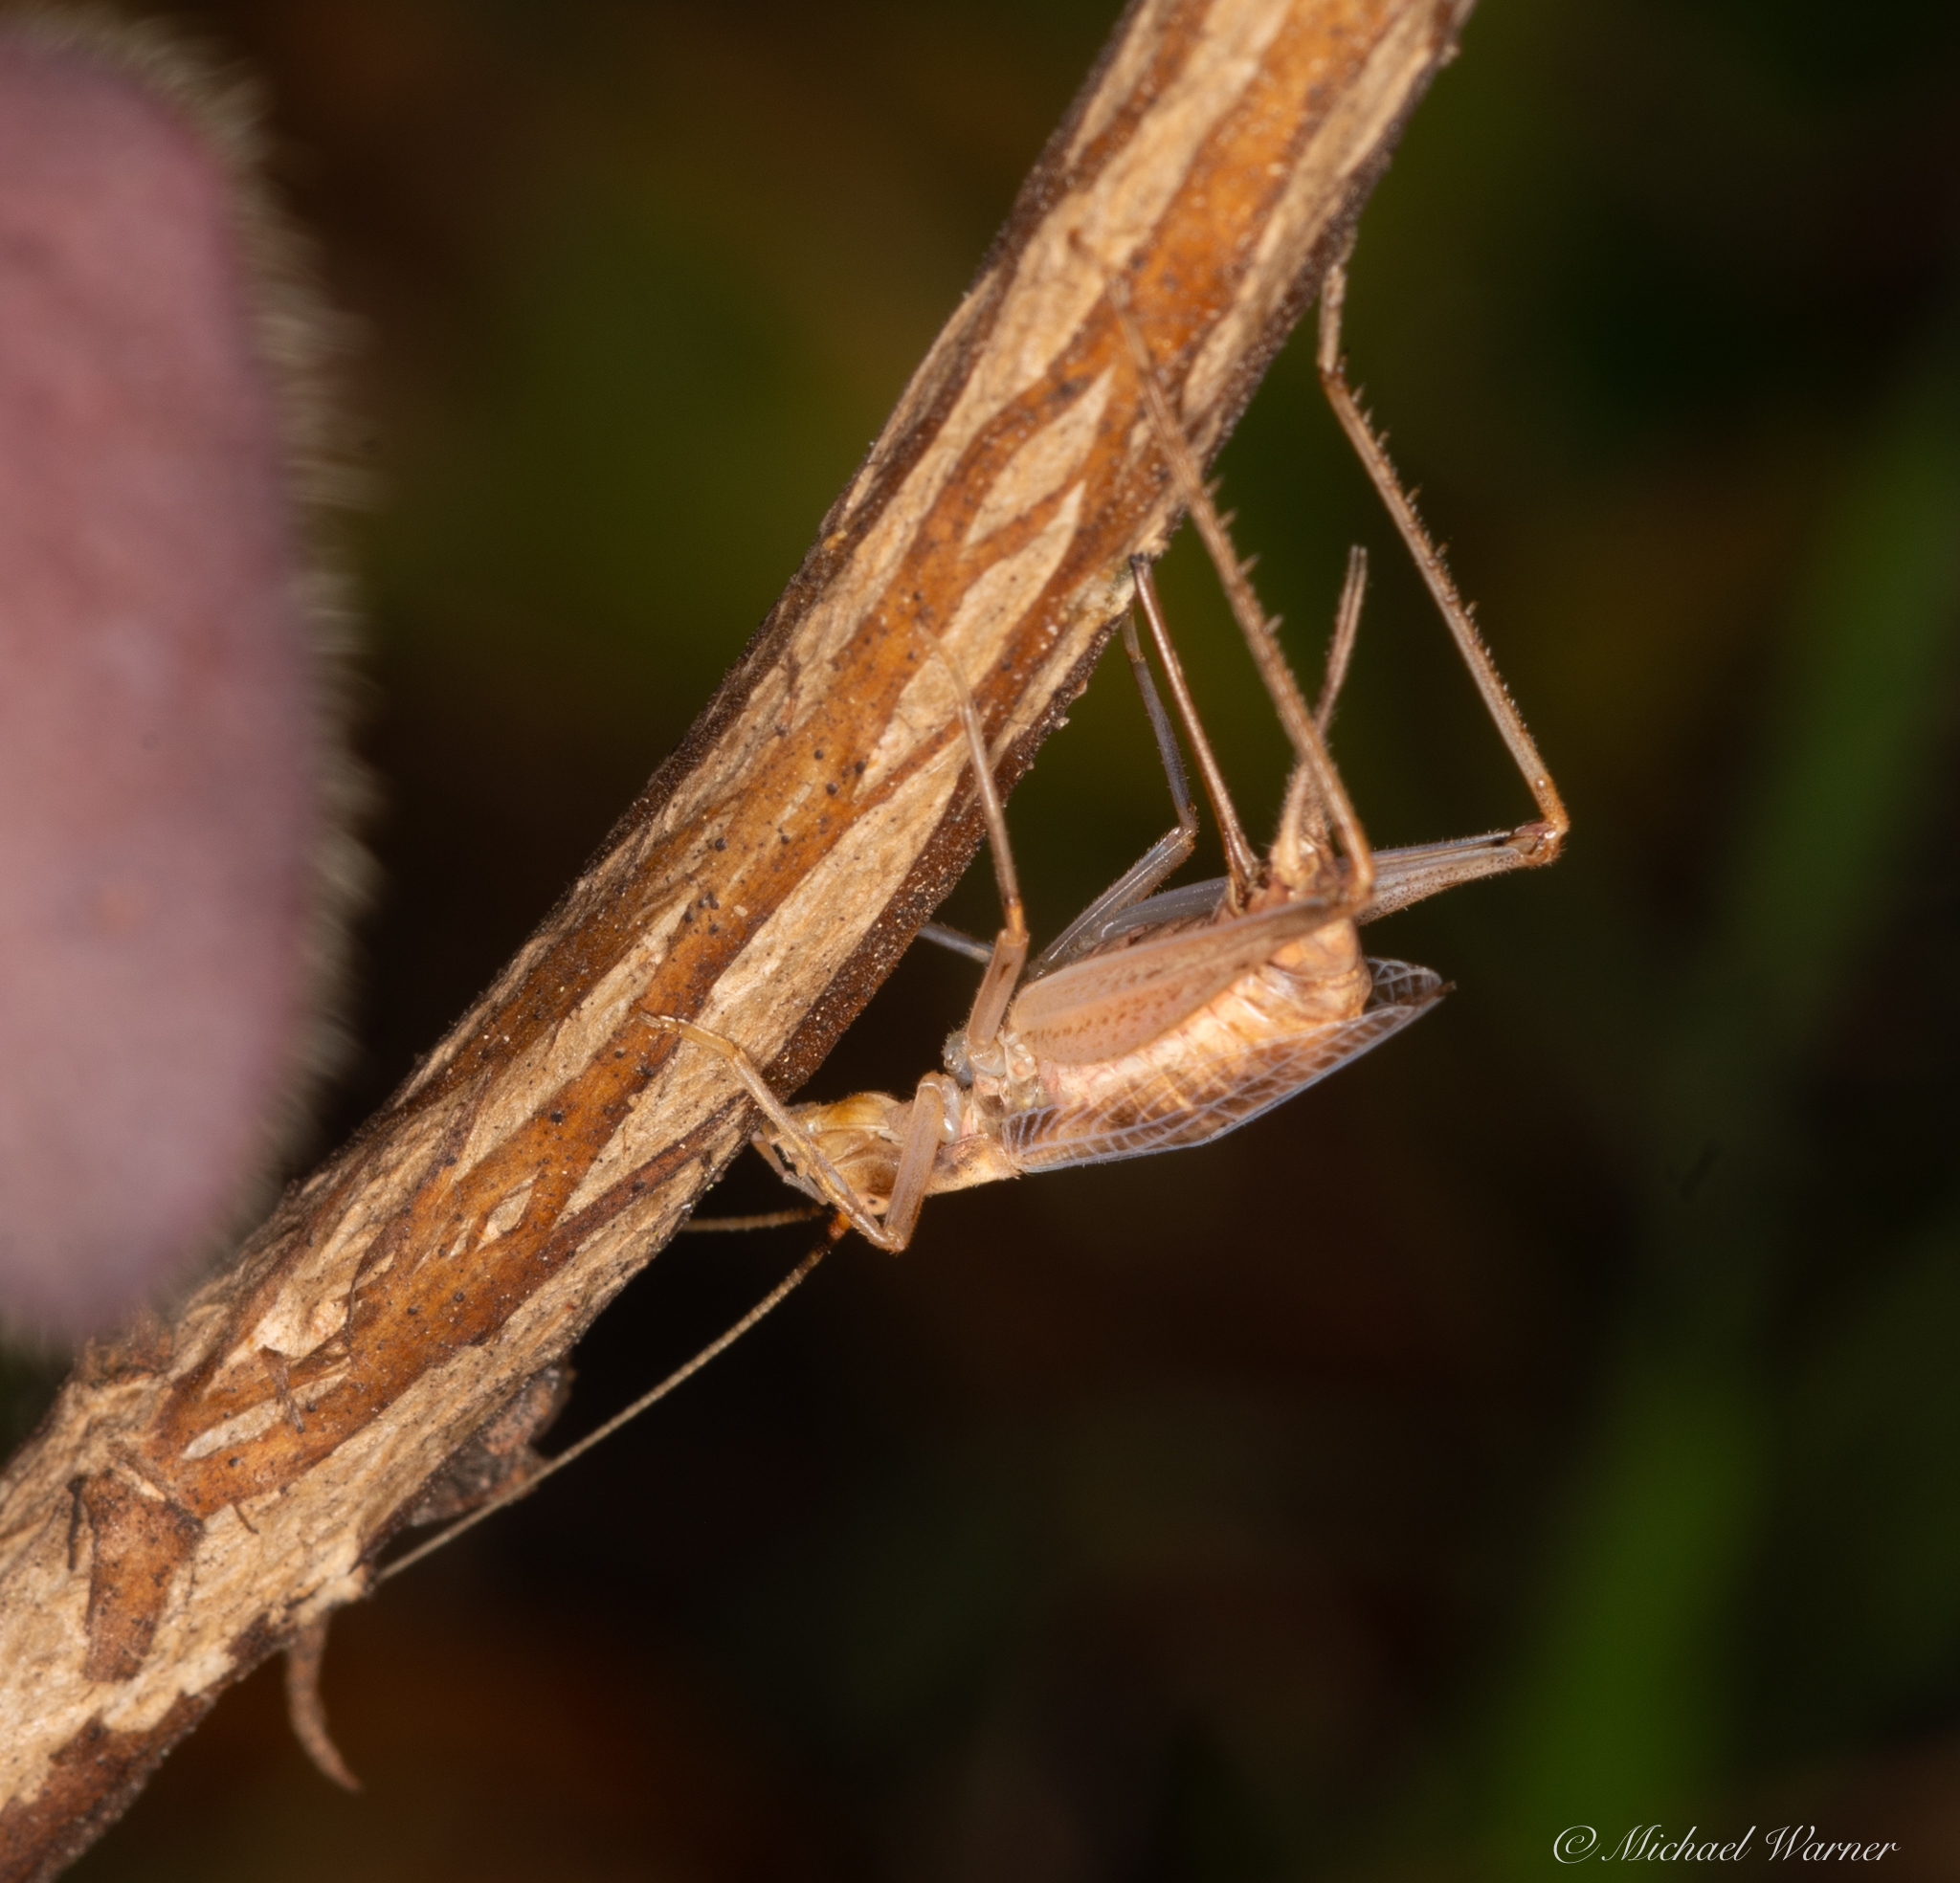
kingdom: Animalia
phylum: Arthropoda
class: Insecta
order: Orthoptera
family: Gryllidae
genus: Oecanthus
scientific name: Oecanthus californicus
